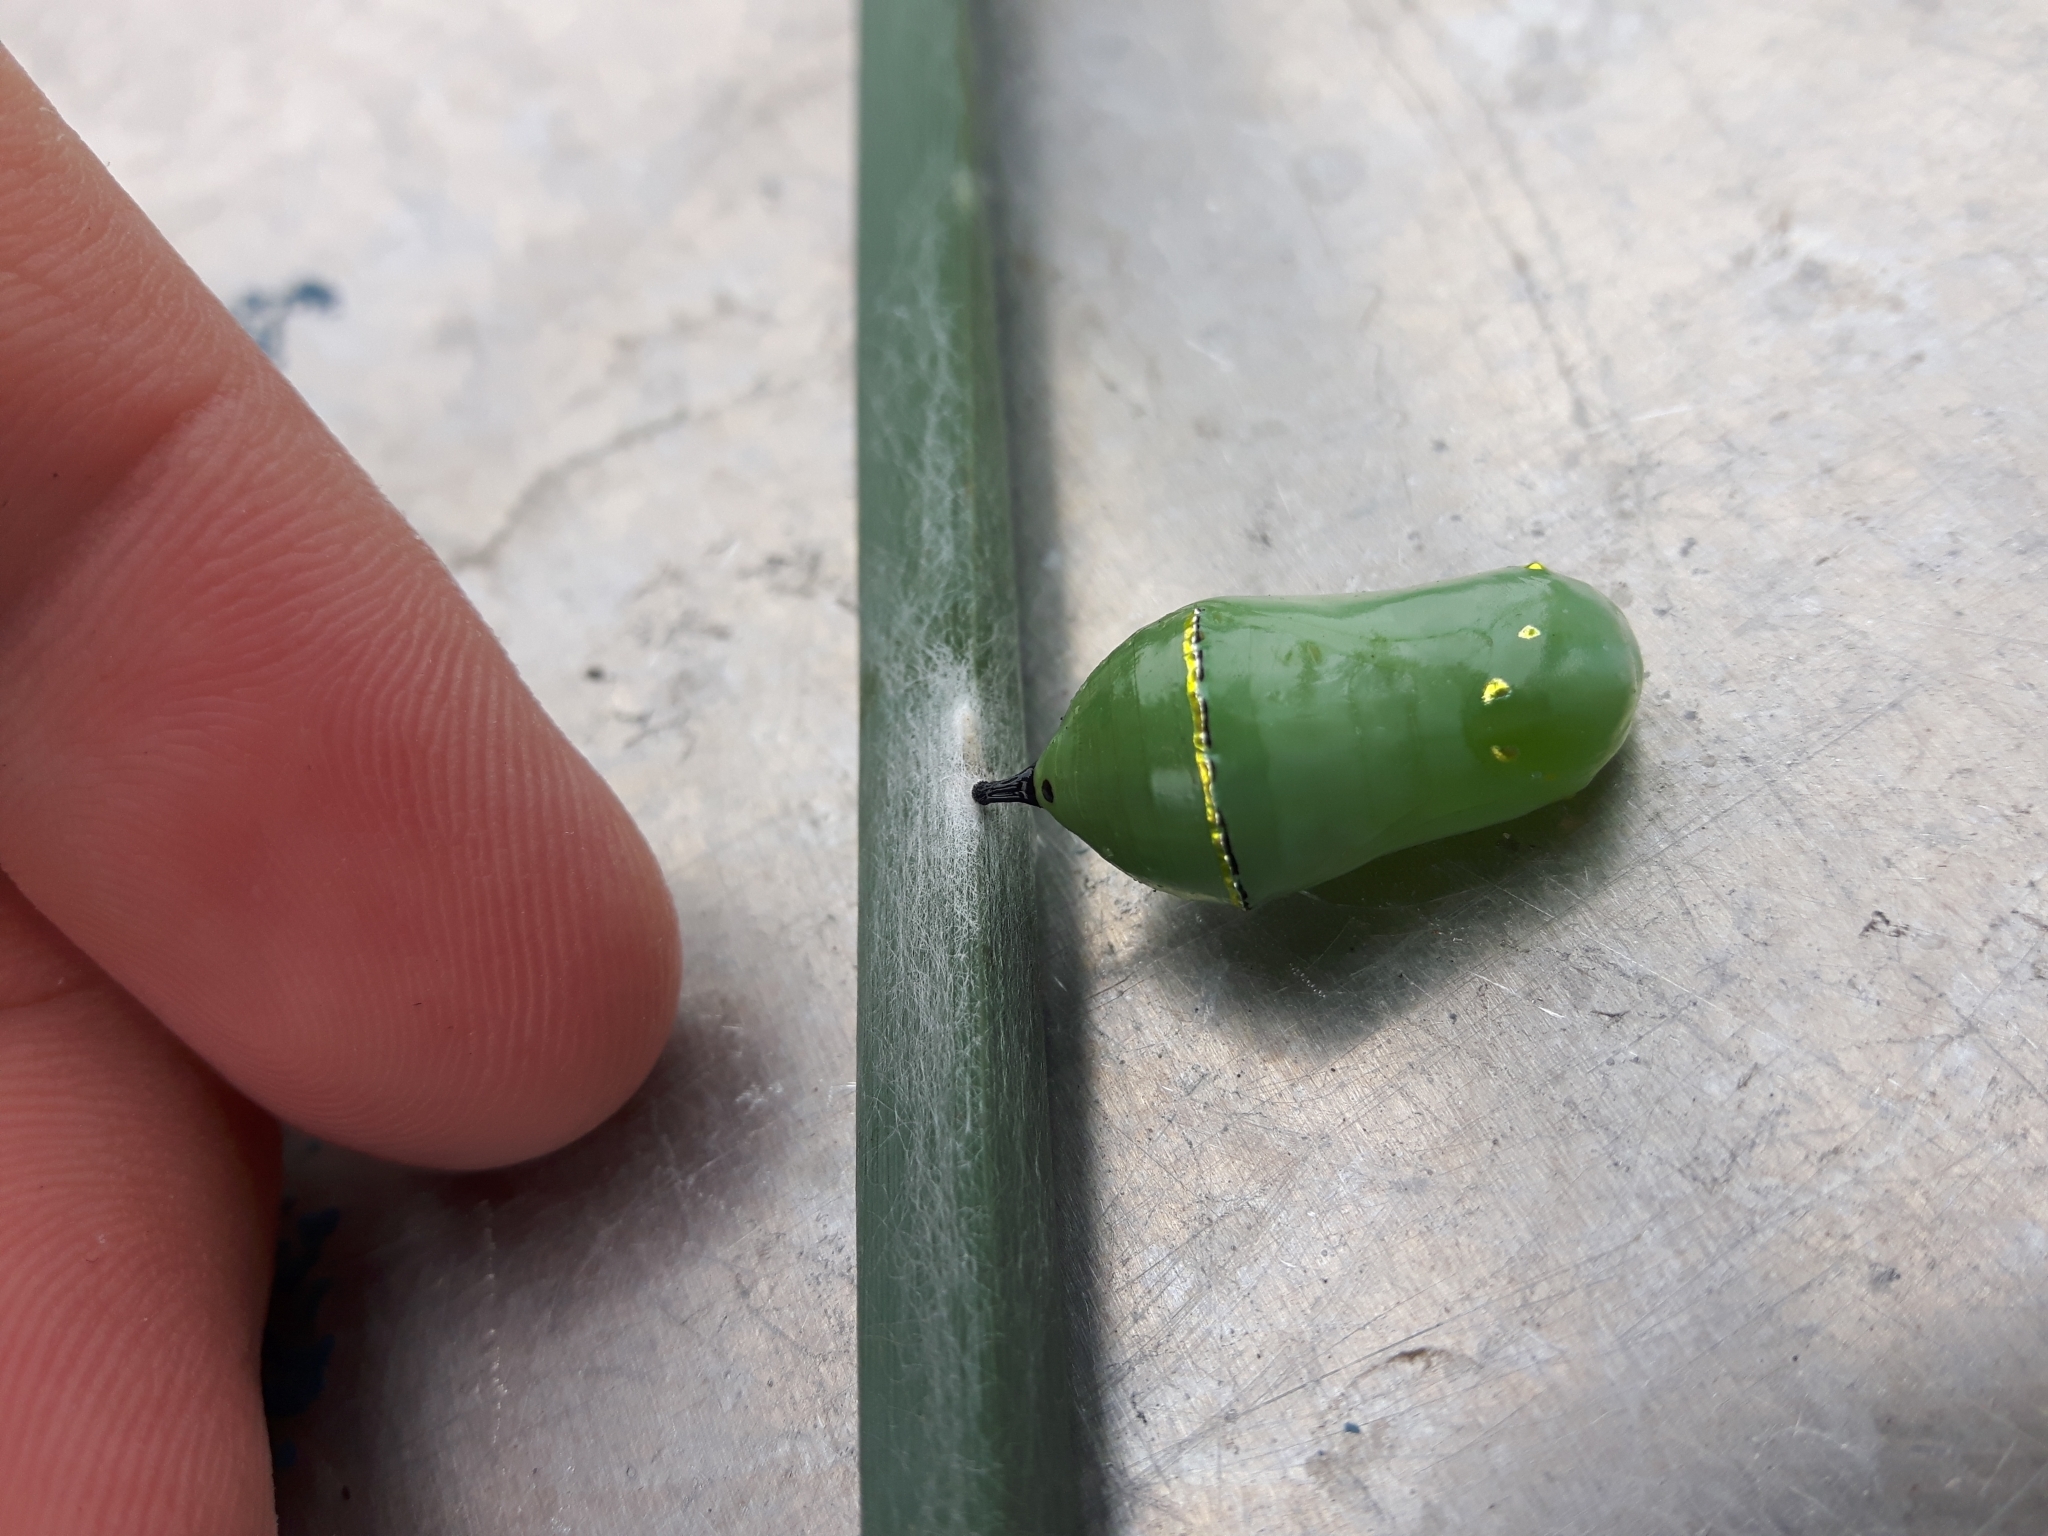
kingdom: Animalia
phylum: Arthropoda
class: Insecta
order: Lepidoptera
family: Nymphalidae
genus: Danaus
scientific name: Danaus plexippus
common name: Monarch
